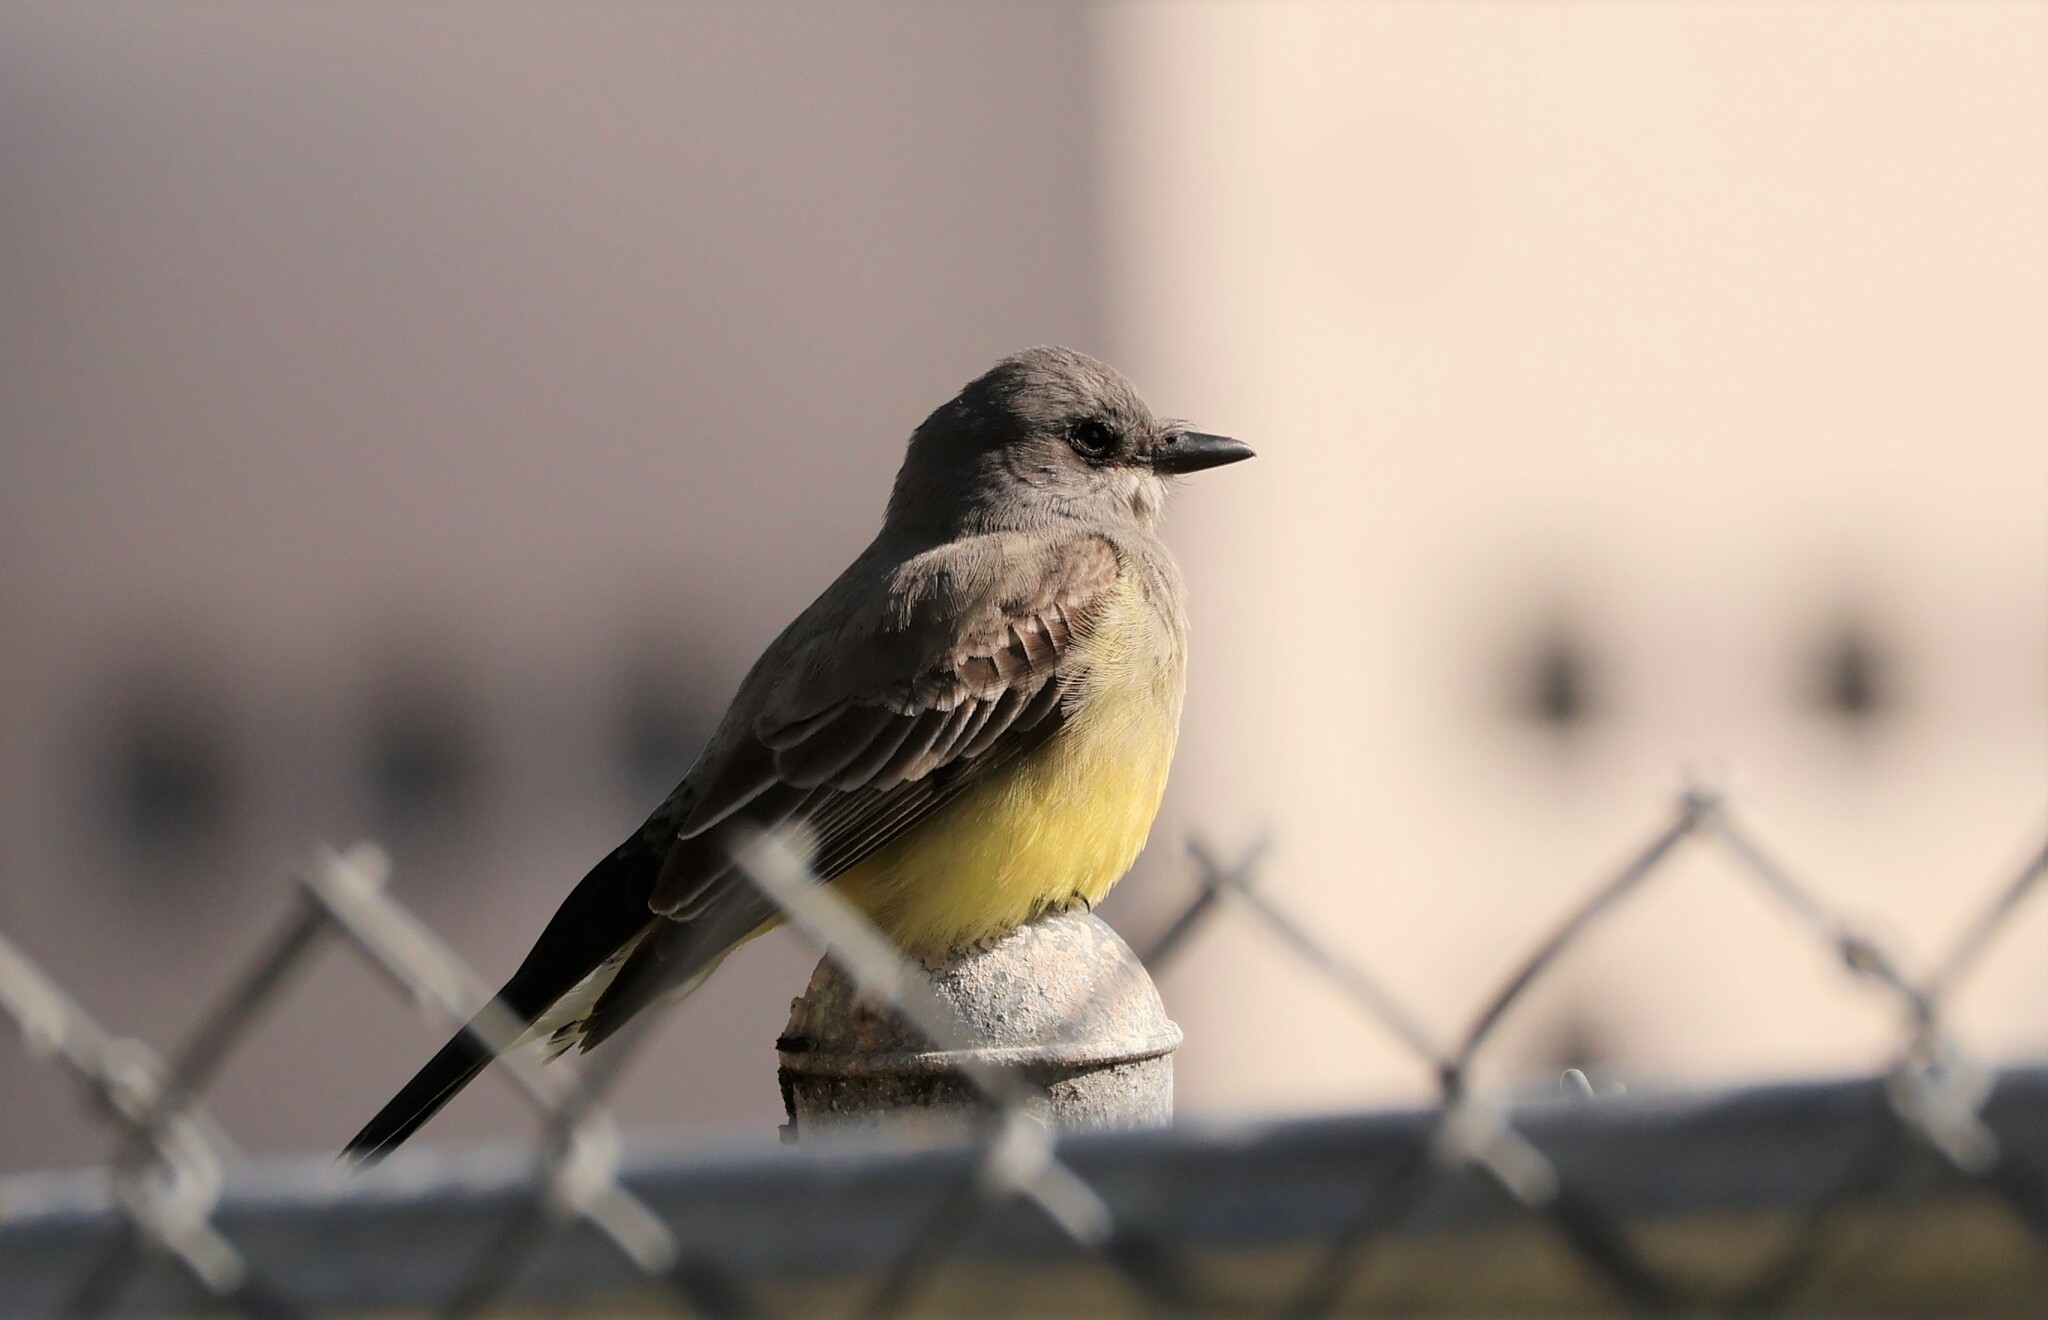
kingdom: Animalia
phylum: Chordata
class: Aves
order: Passeriformes
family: Tyrannidae
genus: Tyrannus
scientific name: Tyrannus vociferans
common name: Cassin's kingbird
